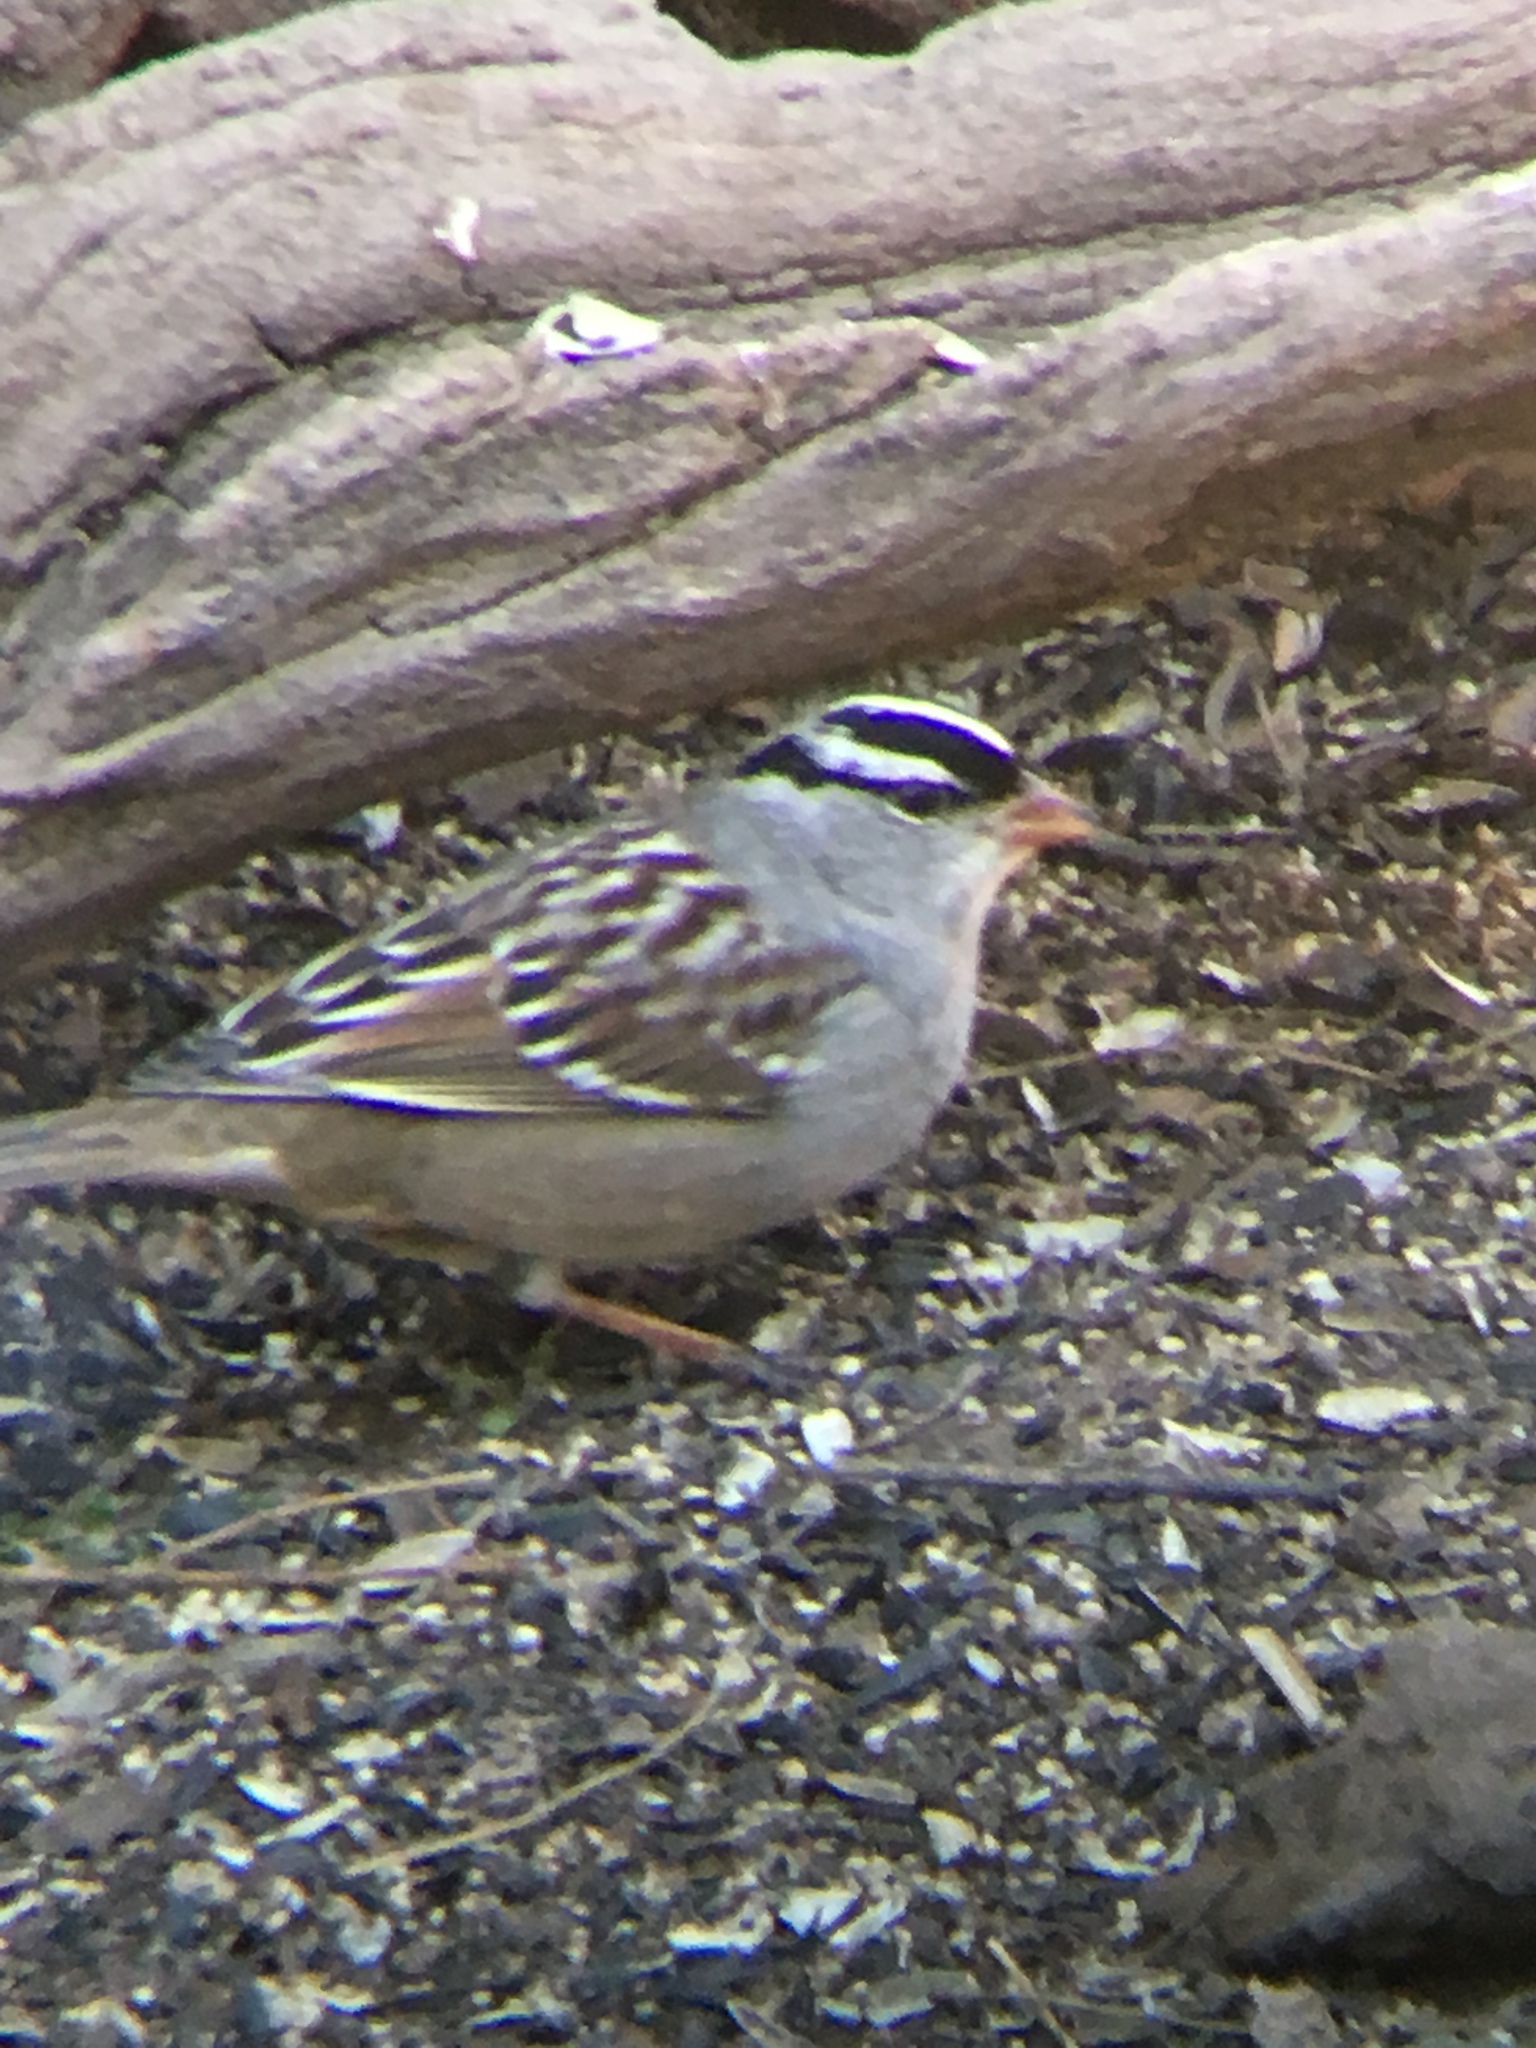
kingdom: Animalia
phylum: Chordata
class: Aves
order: Passeriformes
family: Passerellidae
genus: Zonotrichia
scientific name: Zonotrichia leucophrys
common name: White-crowned sparrow
